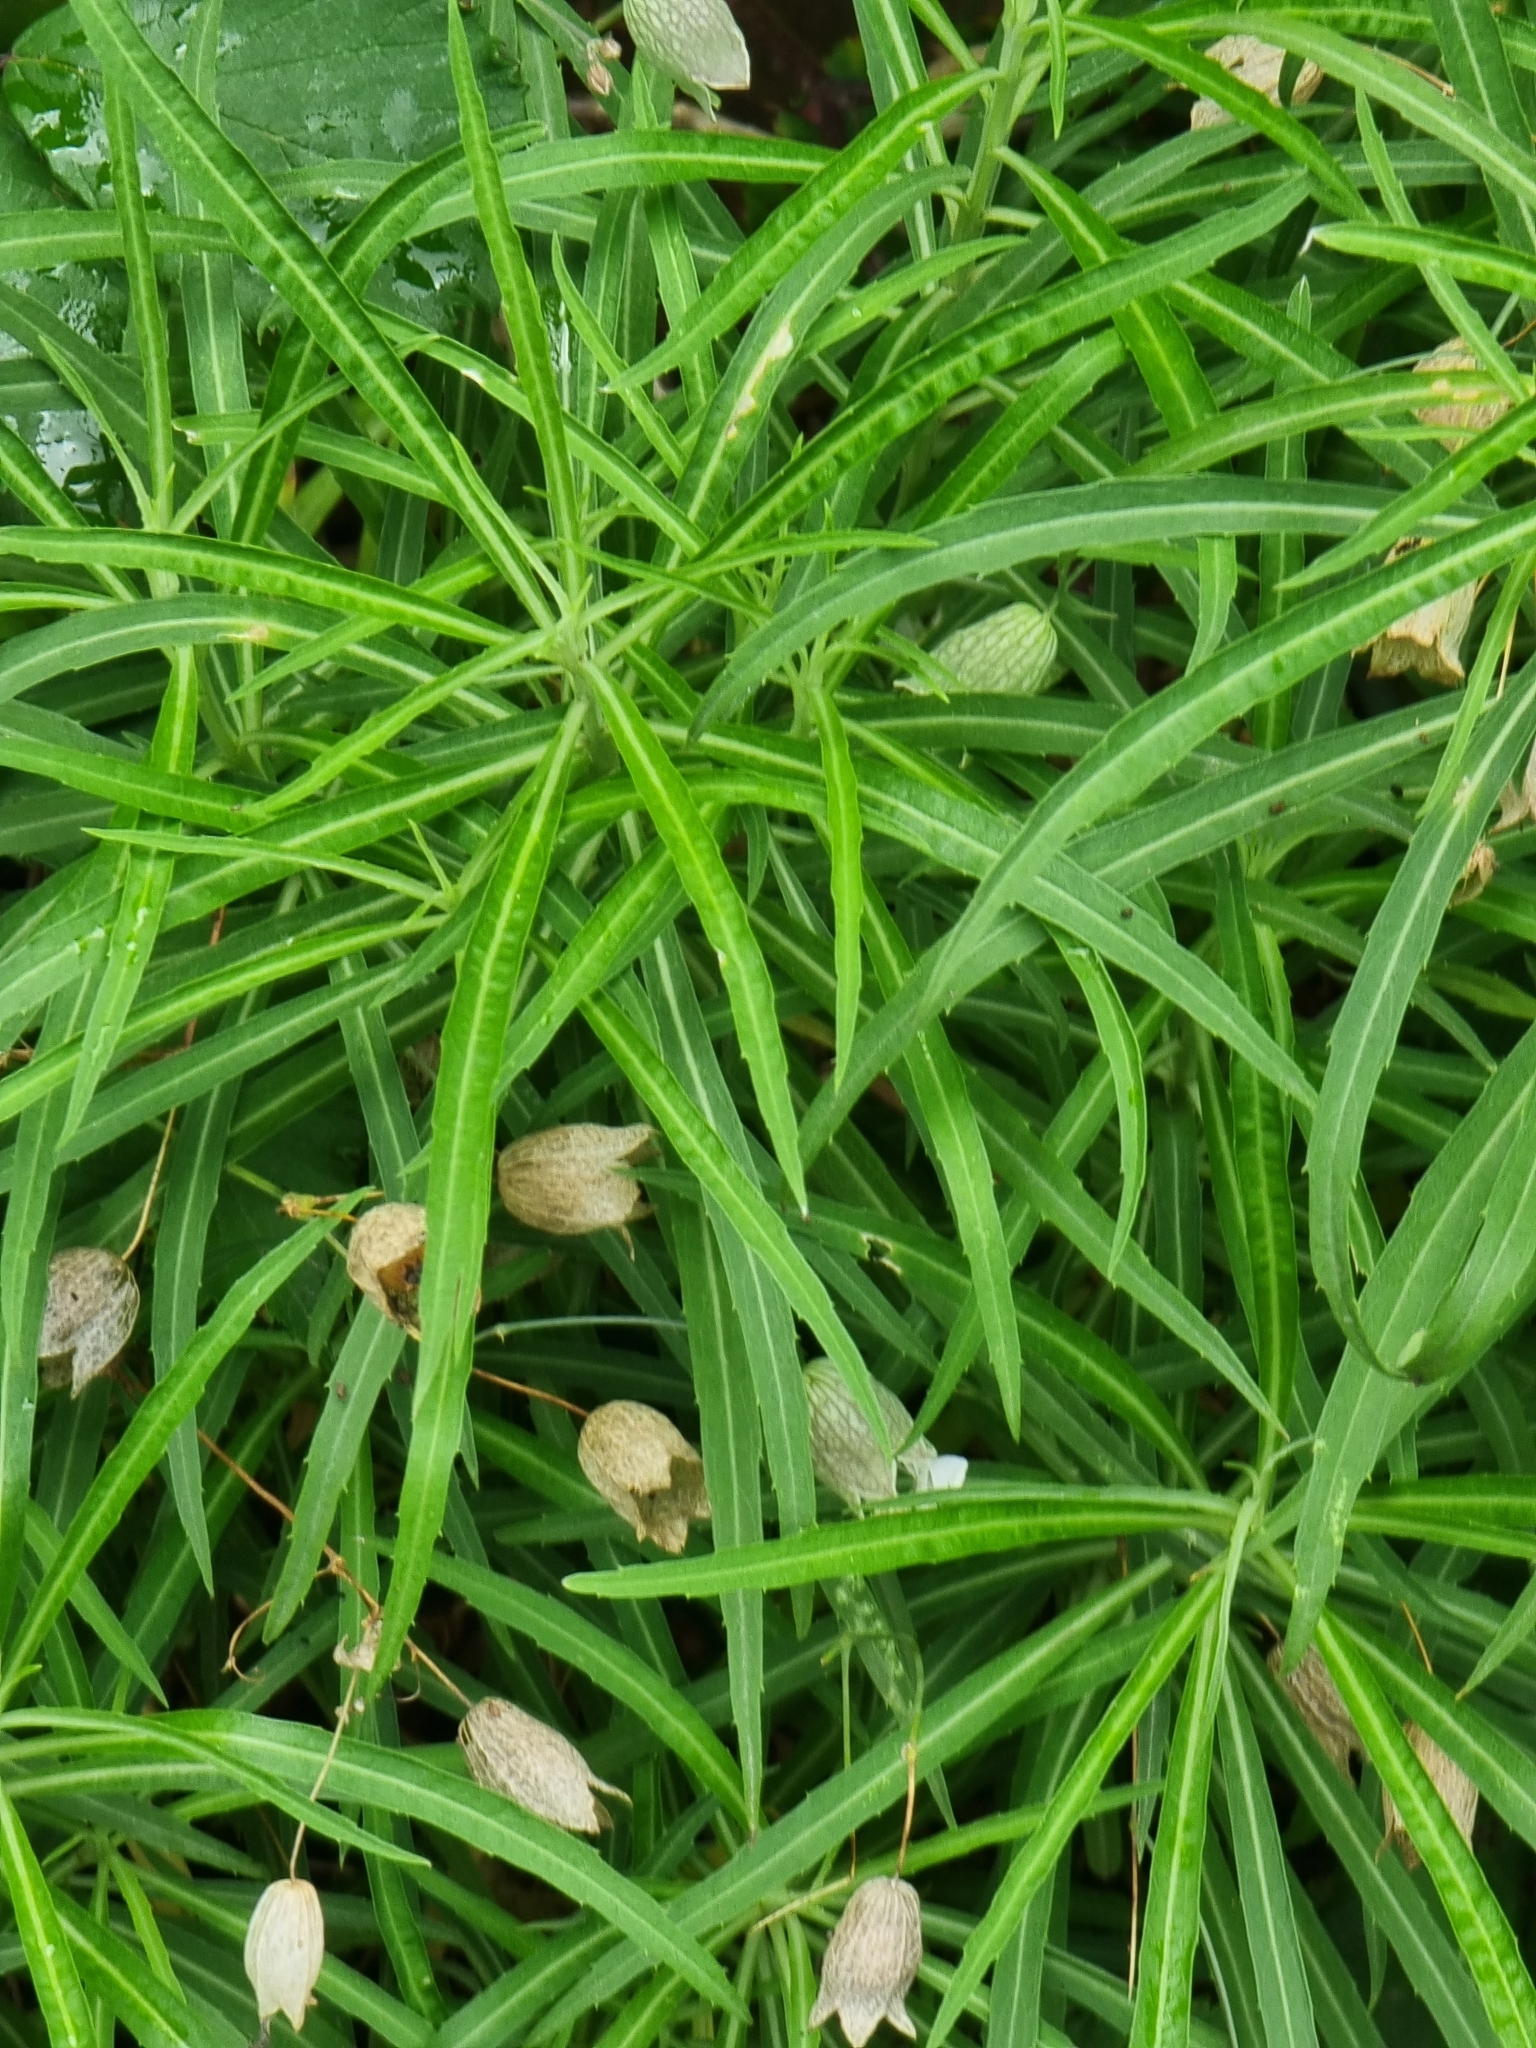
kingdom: Plantae
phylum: Tracheophyta
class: Magnoliopsida
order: Brassicales
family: Brassicaceae
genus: Erysimum
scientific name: Erysimum bicolor
